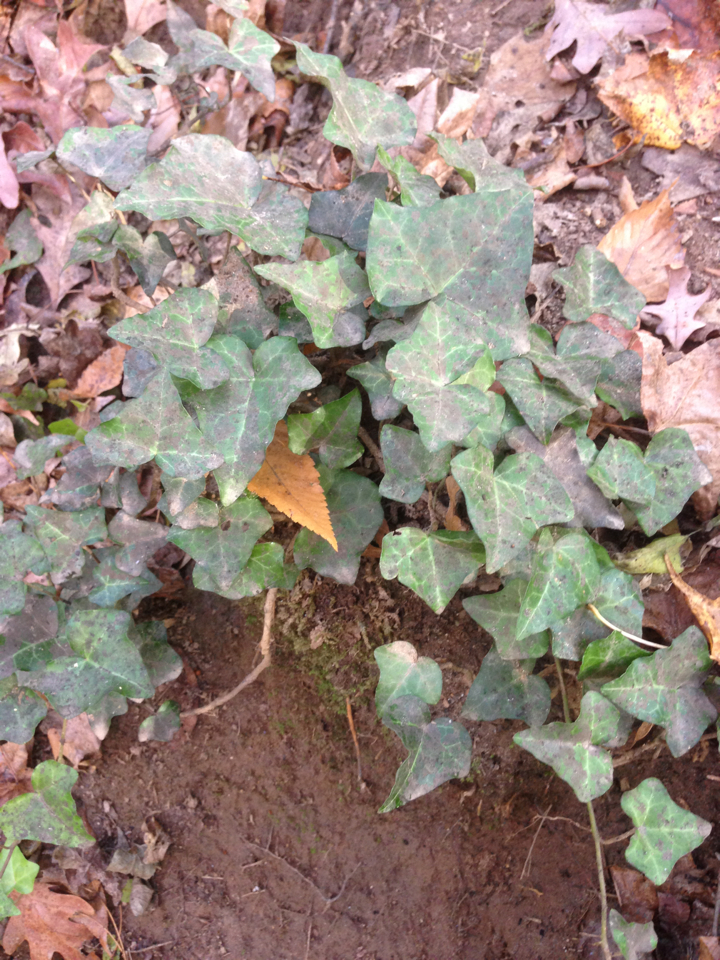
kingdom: Plantae
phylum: Tracheophyta
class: Magnoliopsida
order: Apiales
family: Araliaceae
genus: Hedera
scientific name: Hedera helix
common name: Ivy
